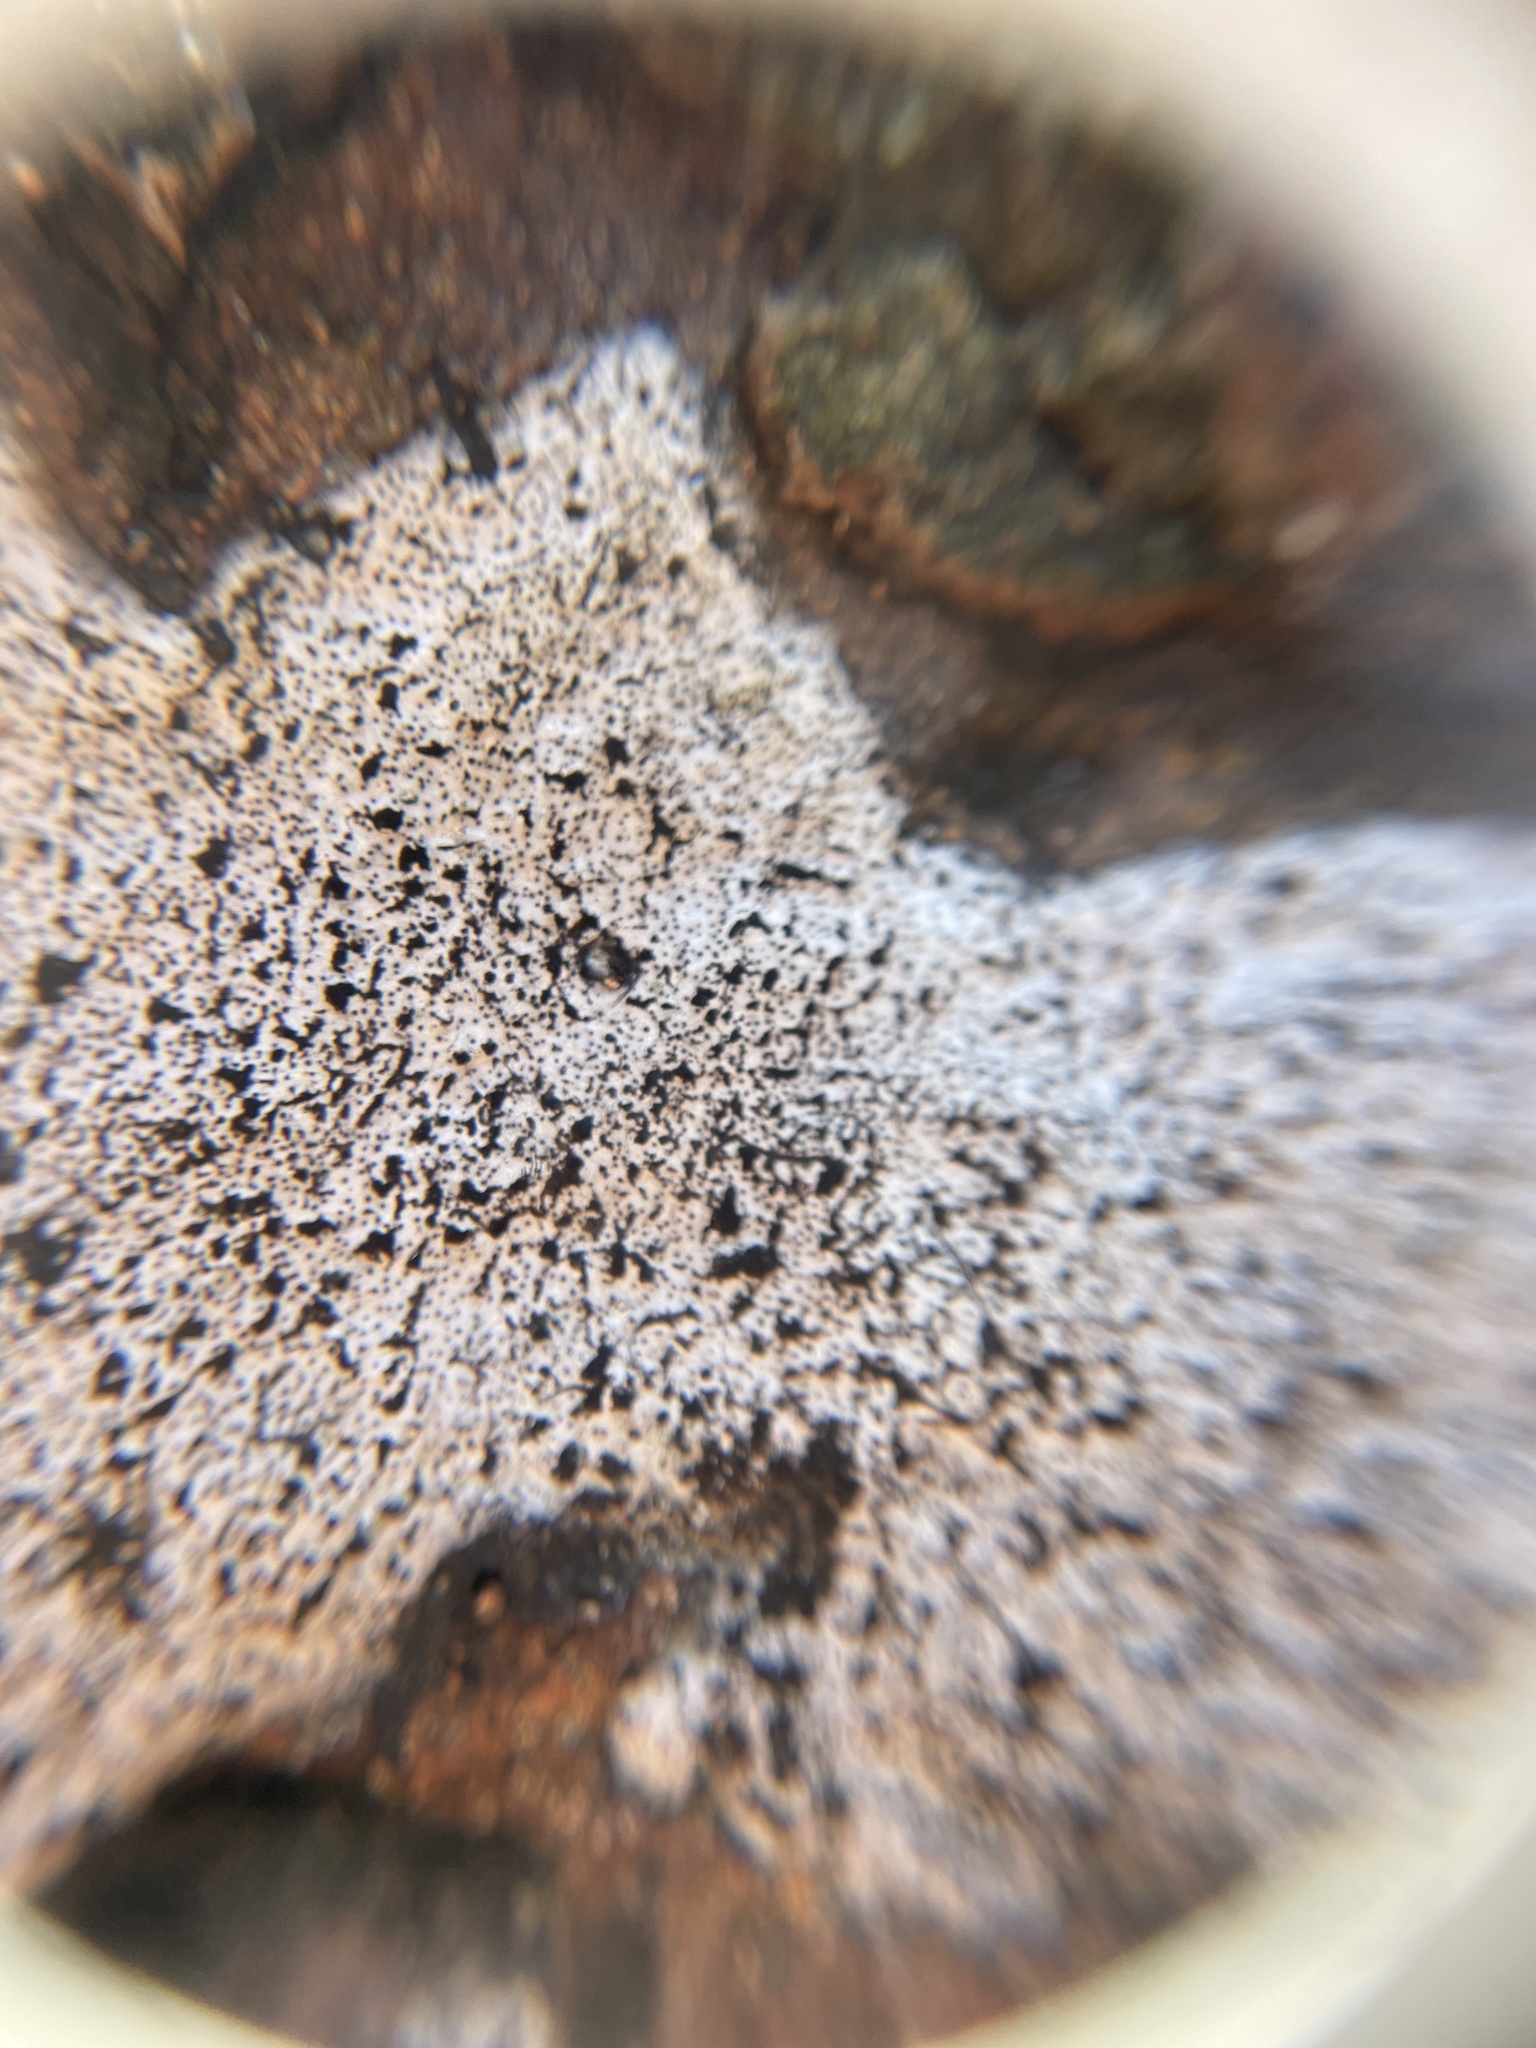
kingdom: Fungi
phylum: Ascomycota
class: Sordariomycetes
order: Xylariales
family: Graphostromataceae
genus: Biscogniauxia
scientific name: Biscogniauxia atropunctata
